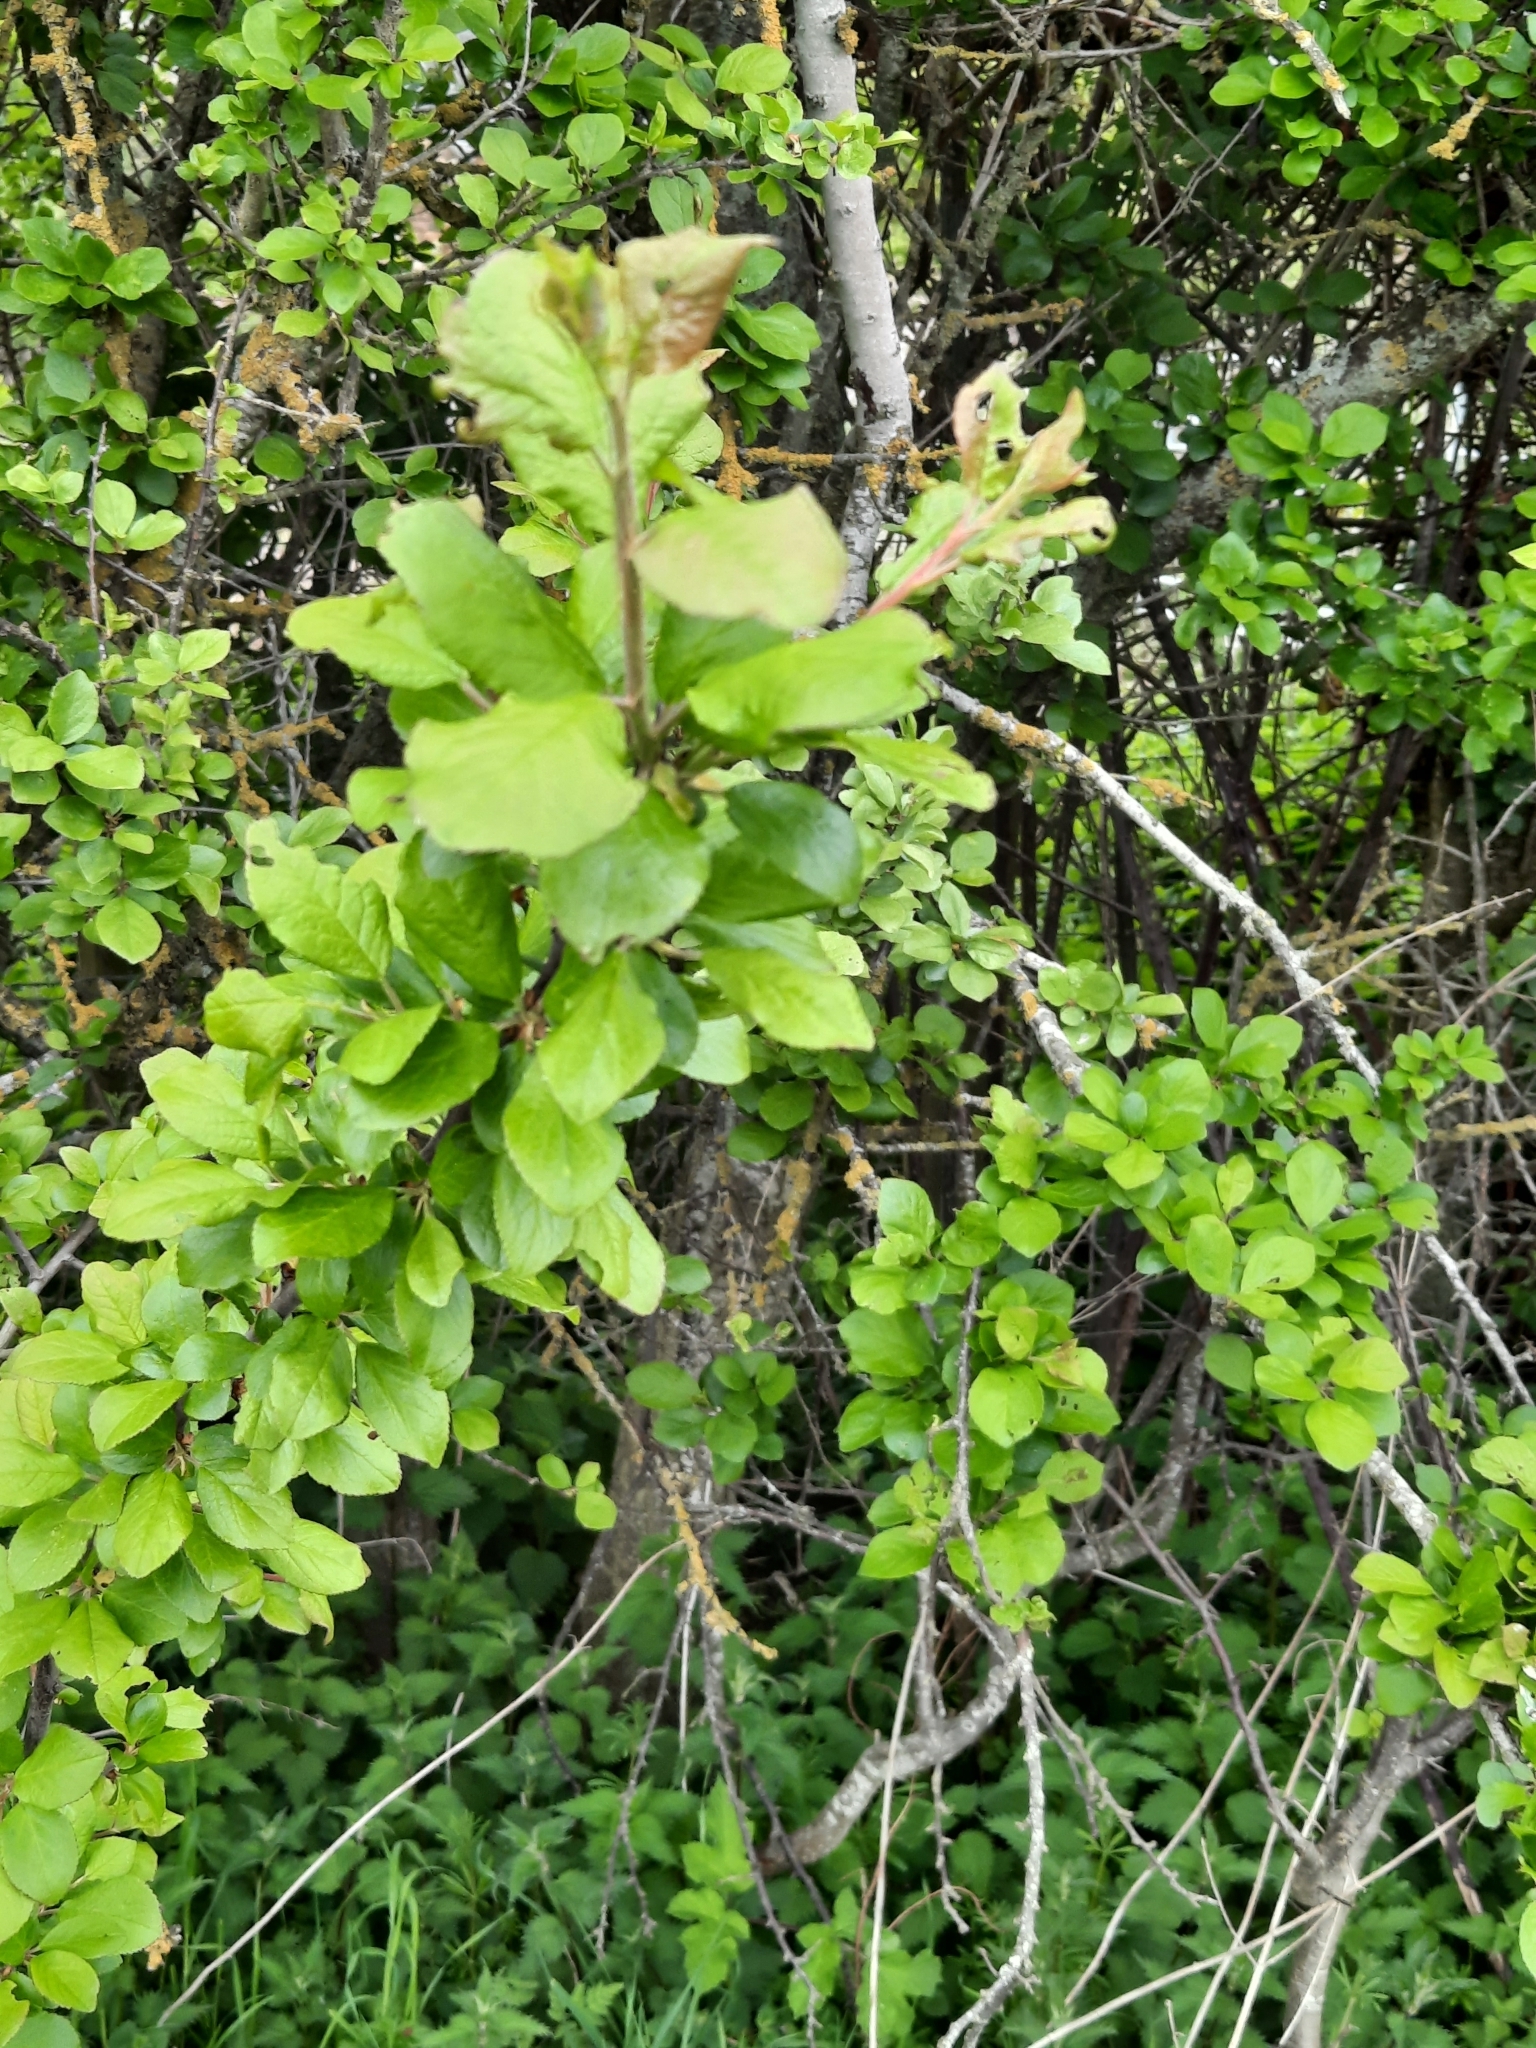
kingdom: Plantae
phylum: Tracheophyta
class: Magnoliopsida
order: Rosales
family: Rosaceae
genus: Prunus
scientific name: Prunus spinosa
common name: Blackthorn
